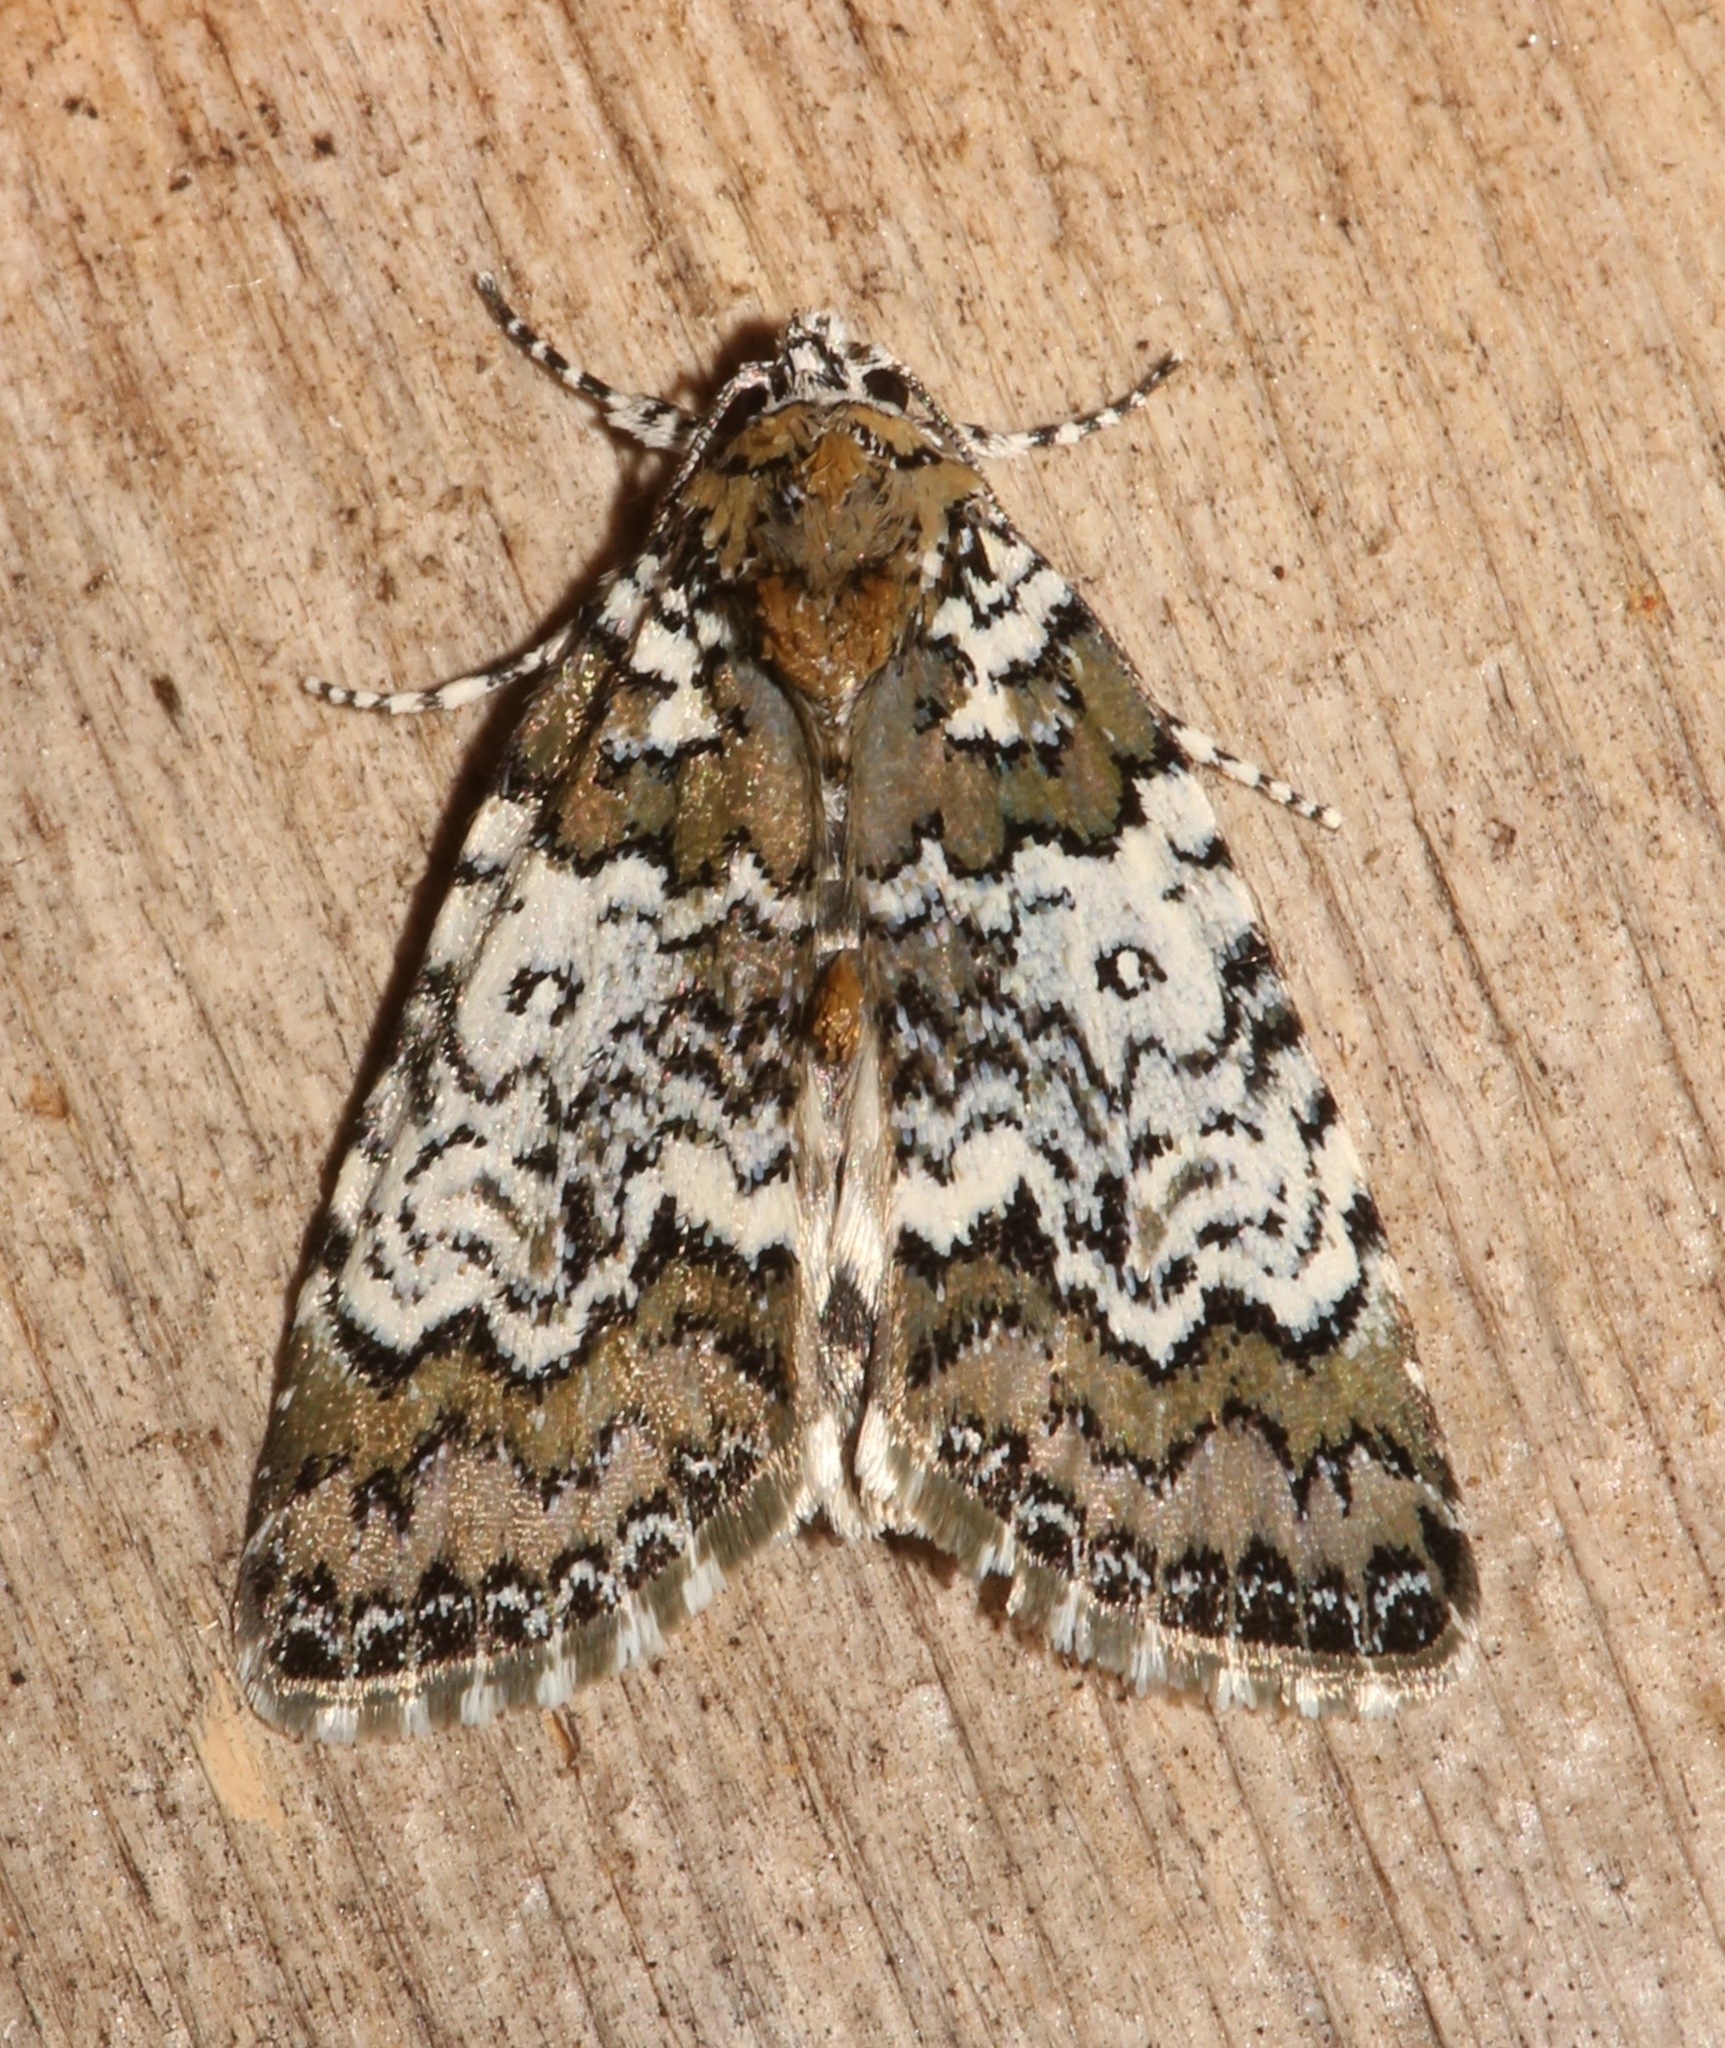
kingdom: Animalia
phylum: Arthropoda
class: Insecta
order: Lepidoptera
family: Noctuidae
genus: Cerma
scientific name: Cerma cora
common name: Bird dropping moth
